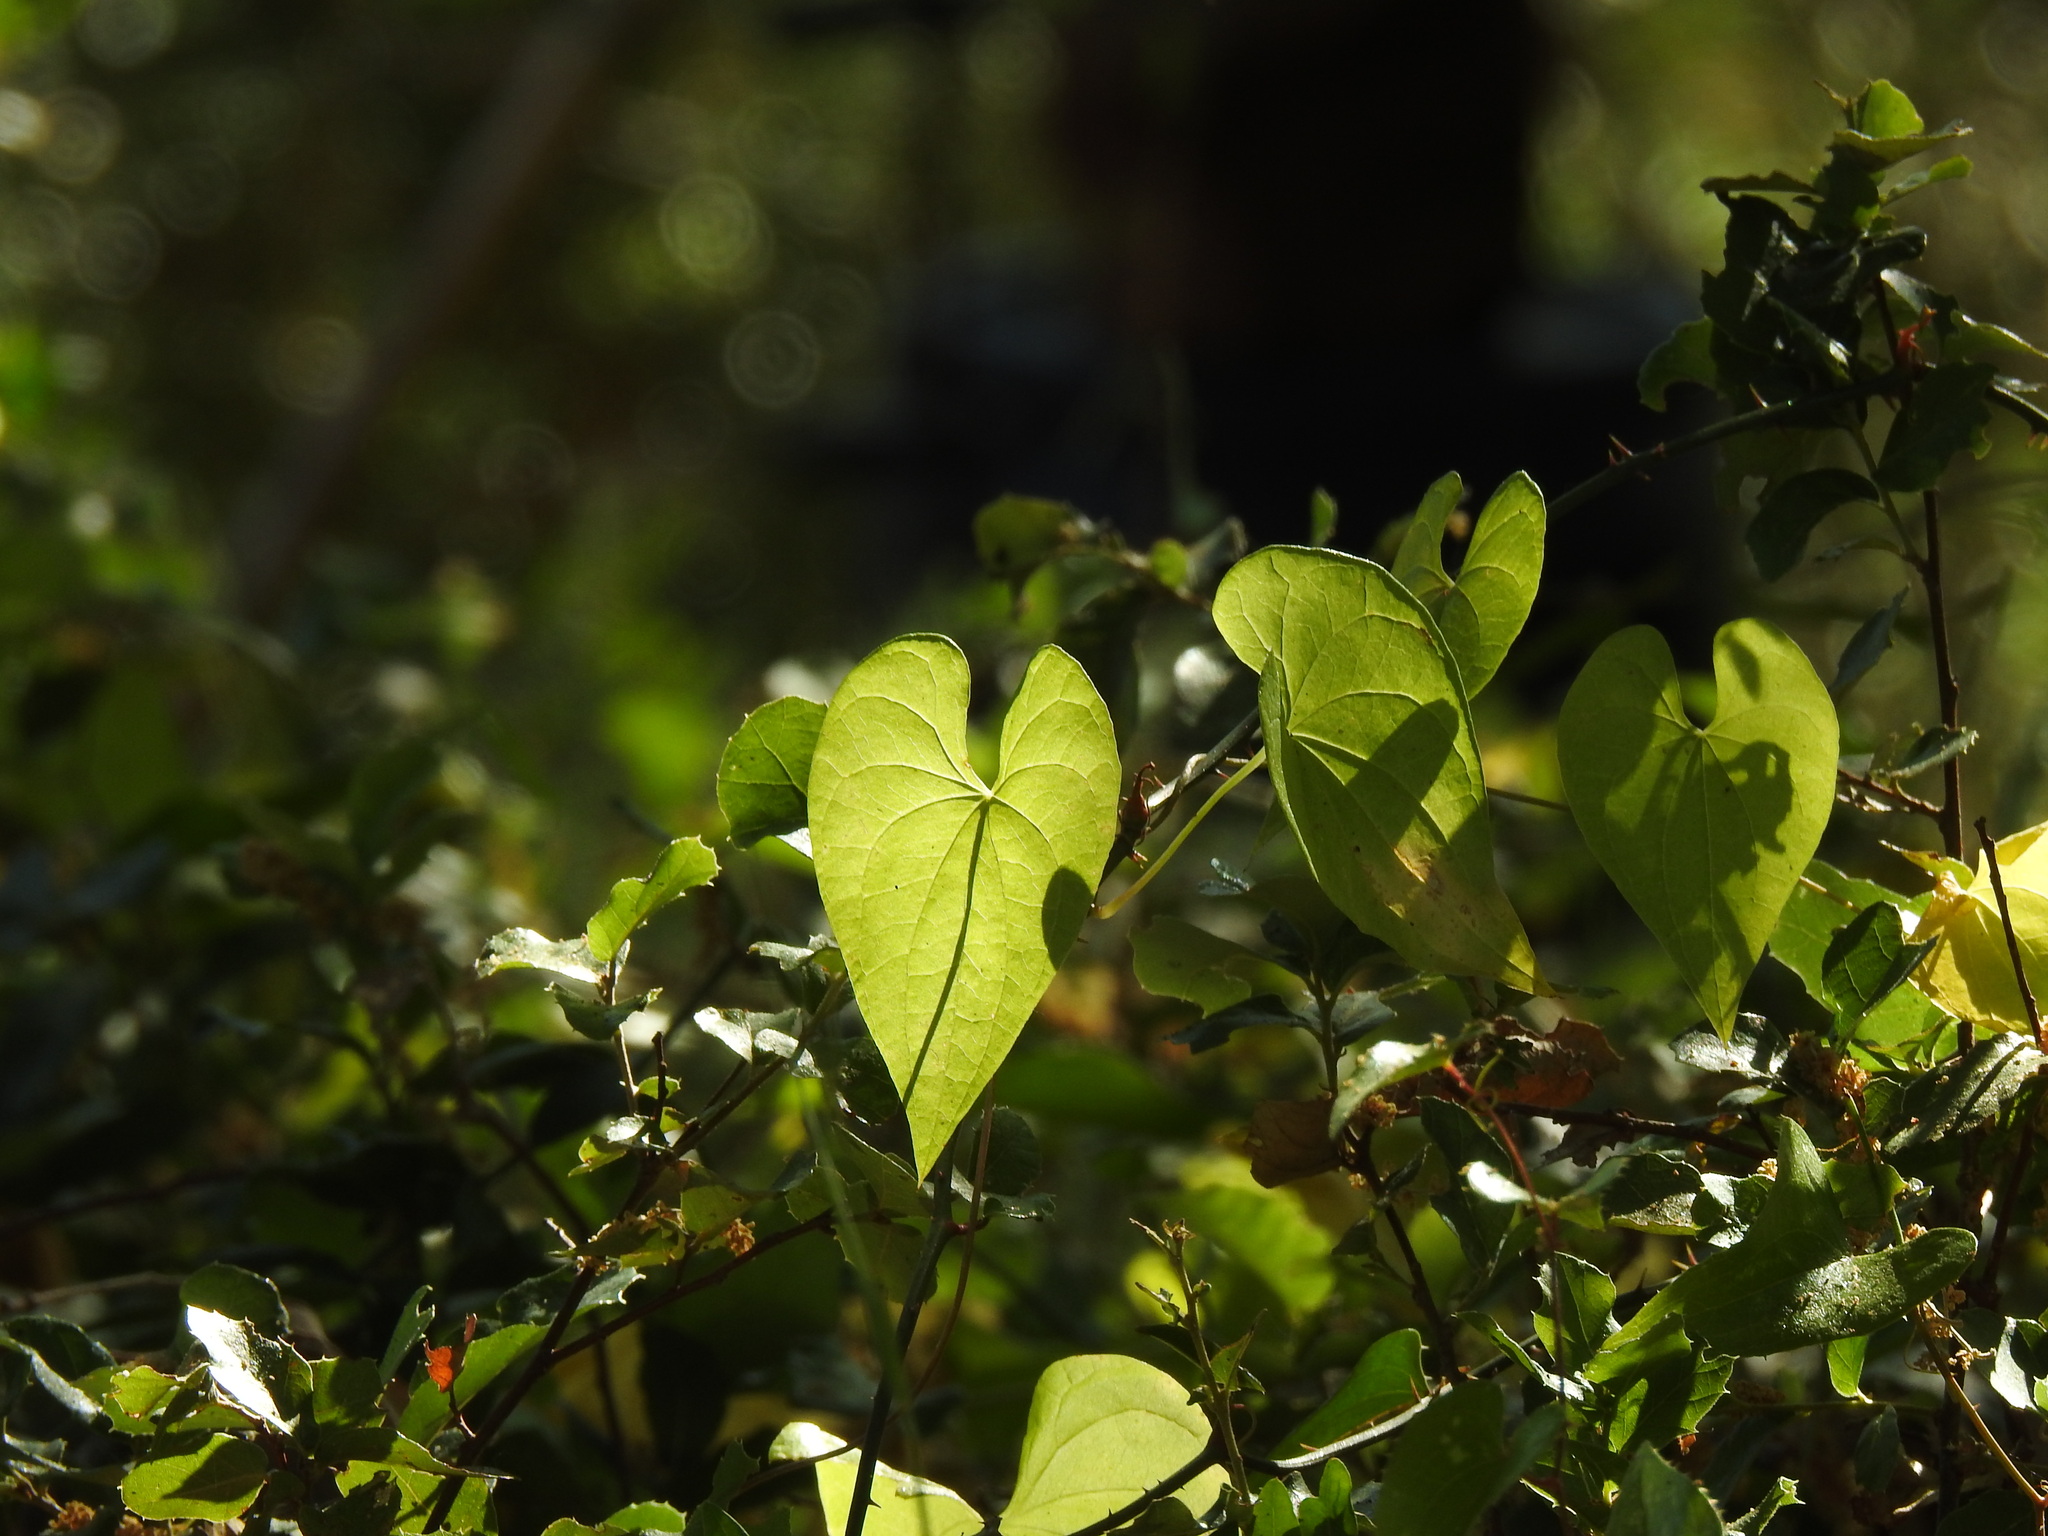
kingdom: Plantae
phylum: Tracheophyta
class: Liliopsida
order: Dioscoreales
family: Dioscoreaceae
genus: Dioscorea
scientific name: Dioscorea communis
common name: Black-bindweed
